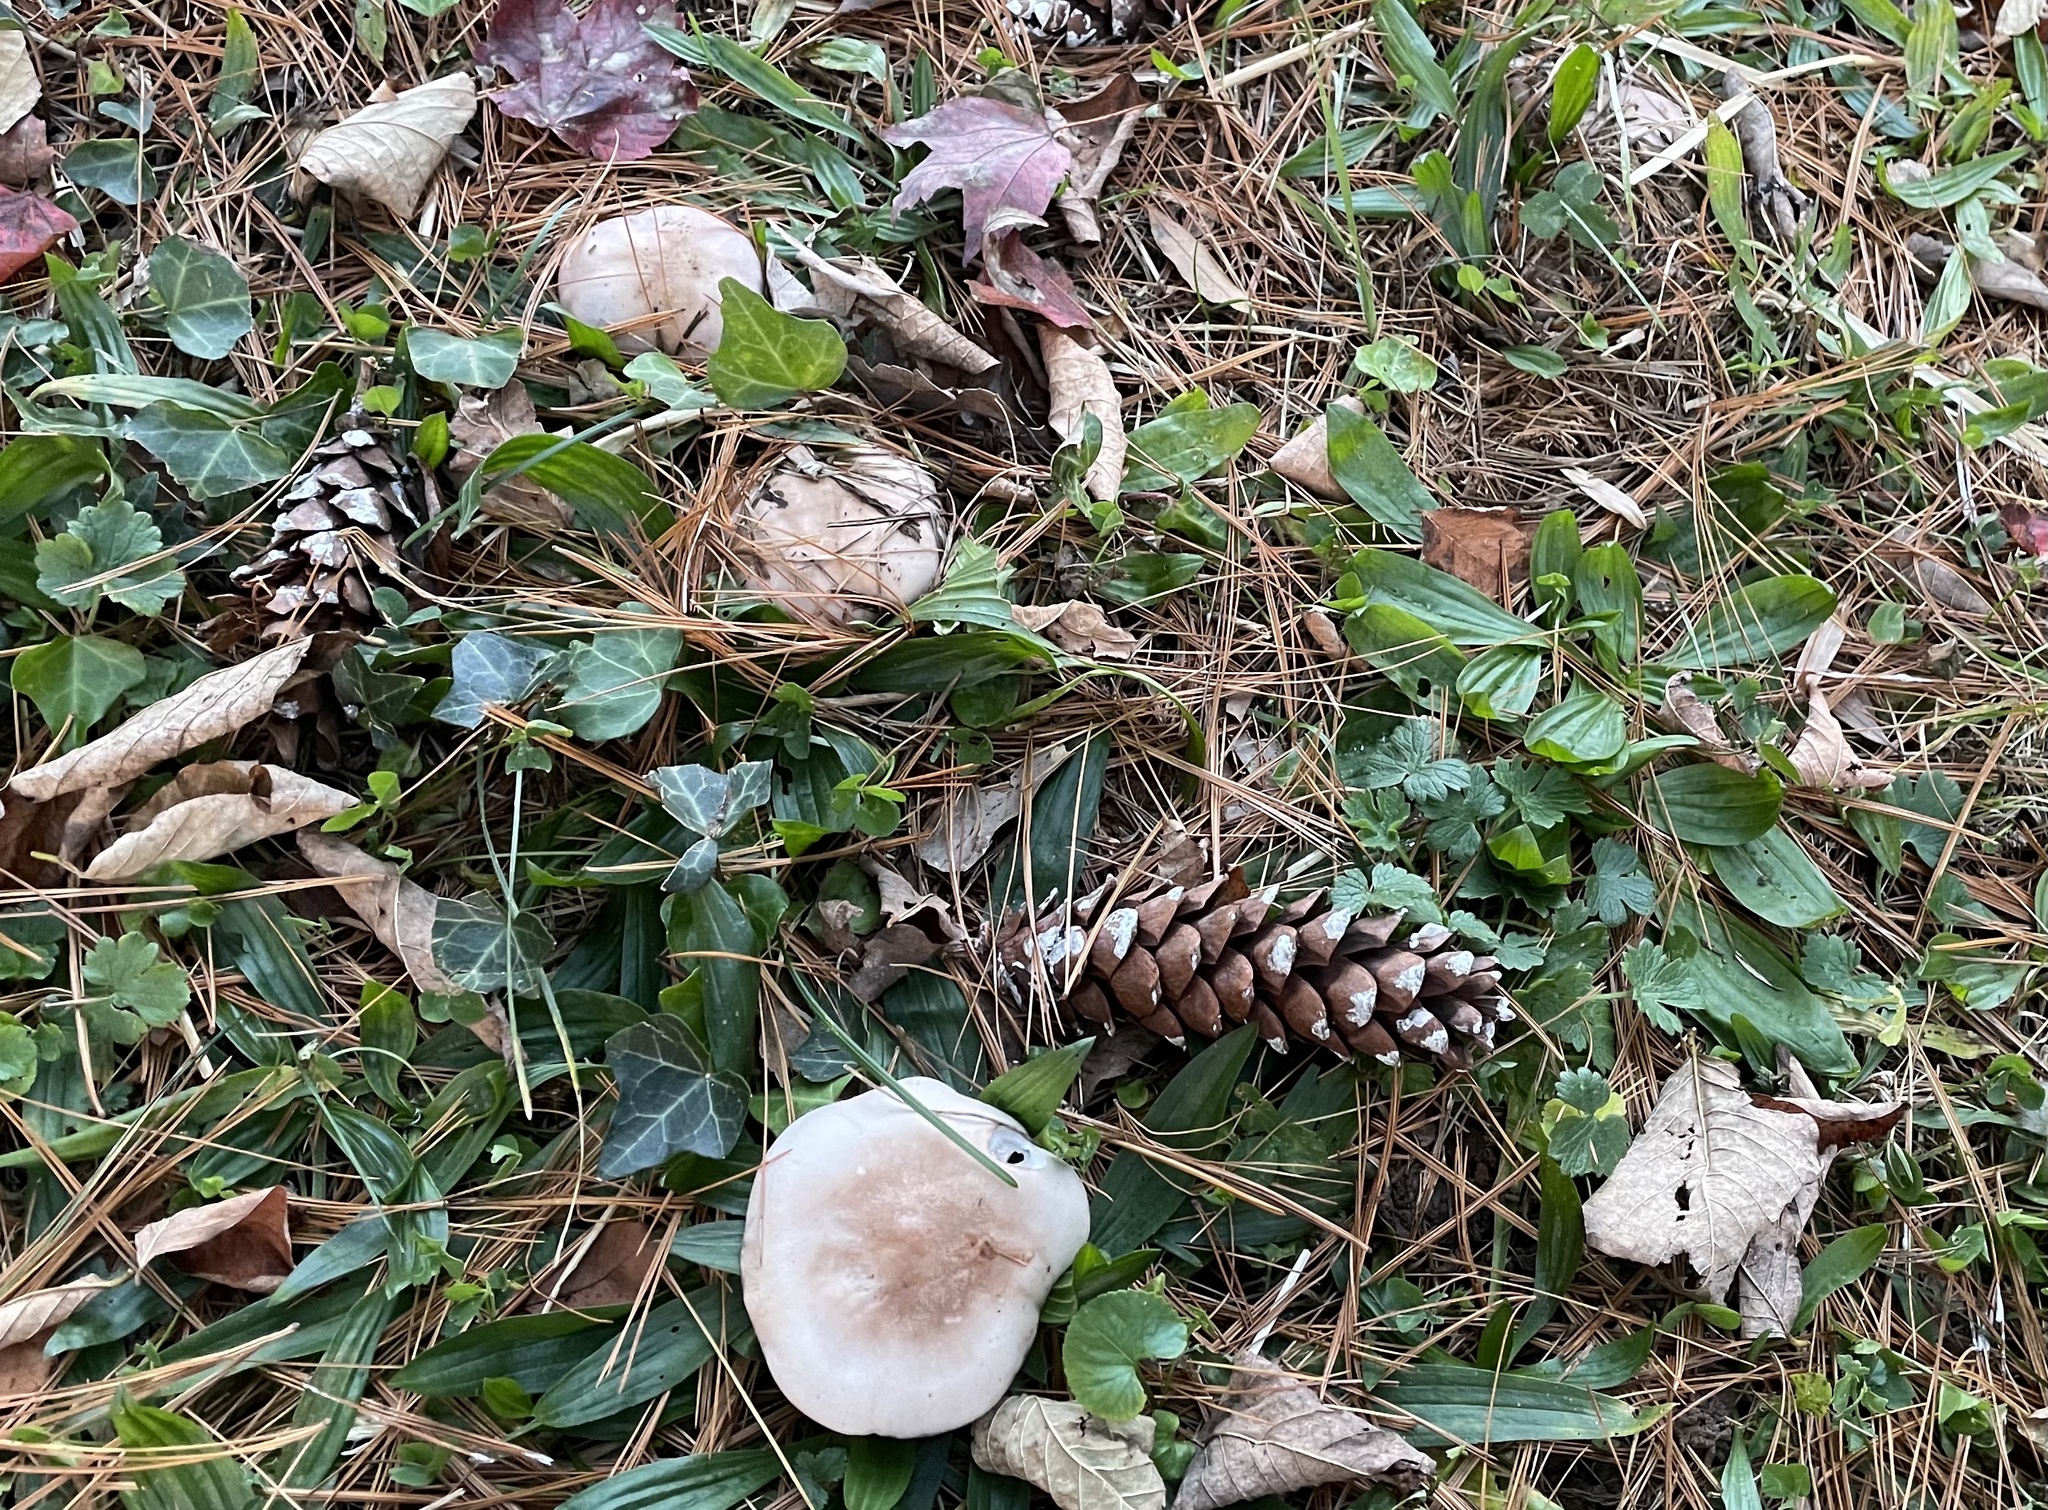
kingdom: Fungi
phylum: Basidiomycota
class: Agaricomycetes
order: Agaricales
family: Tricholomataceae
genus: Collybia
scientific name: Collybia
